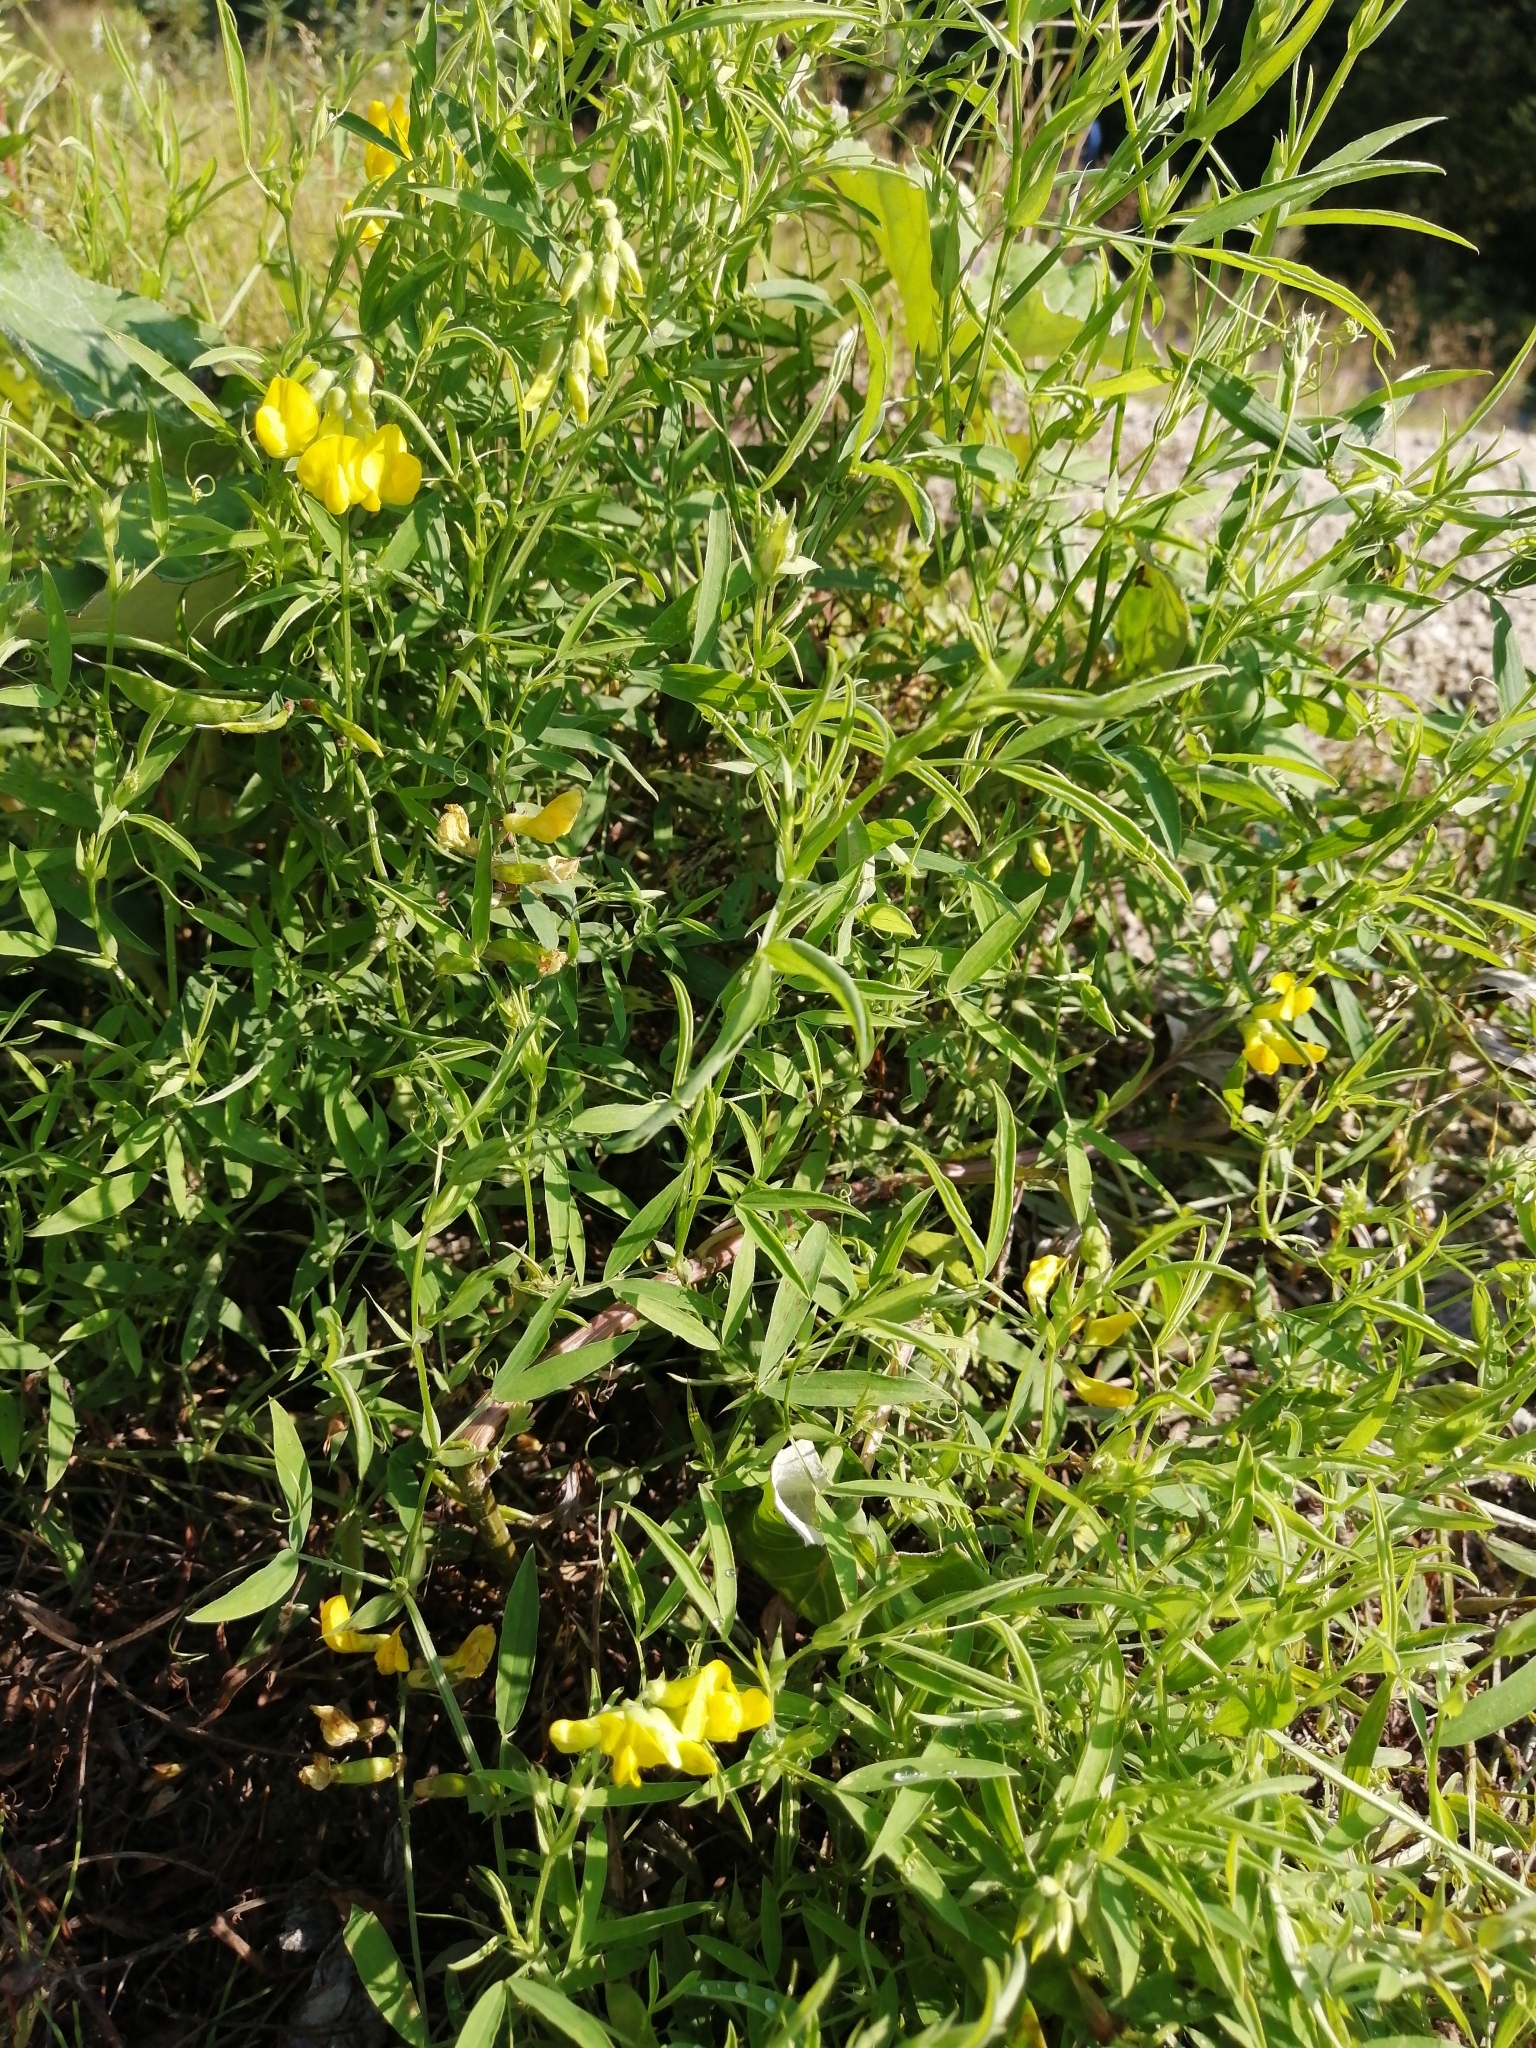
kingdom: Plantae
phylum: Tracheophyta
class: Magnoliopsida
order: Fabales
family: Fabaceae
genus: Lathyrus
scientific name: Lathyrus pratensis
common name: Meadow vetchling
